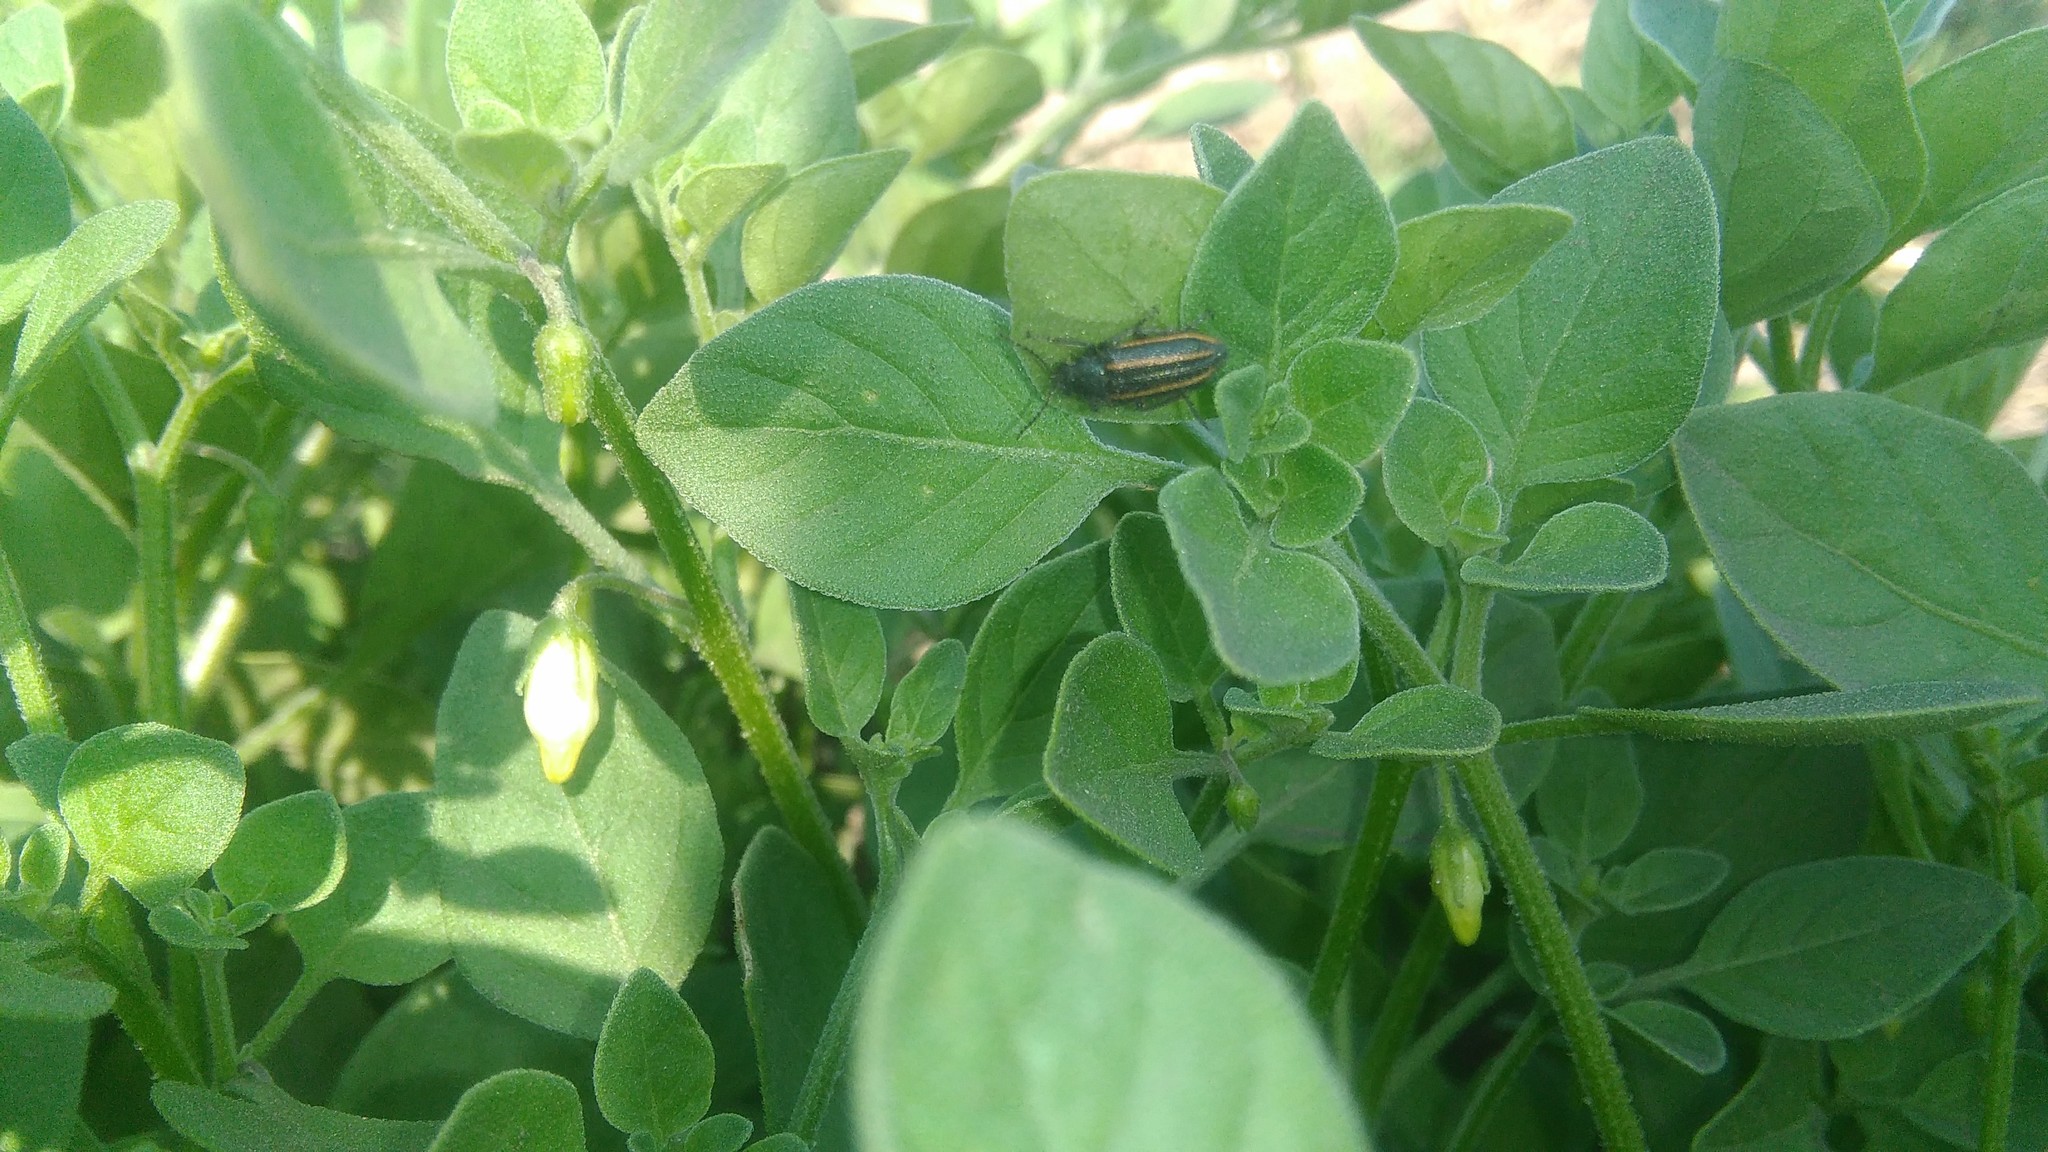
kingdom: Plantae
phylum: Tracheophyta
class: Magnoliopsida
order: Solanales
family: Solanaceae
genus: Salpichroa
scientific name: Salpichroa origanifolia
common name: Lily-of-the-valley-vine
